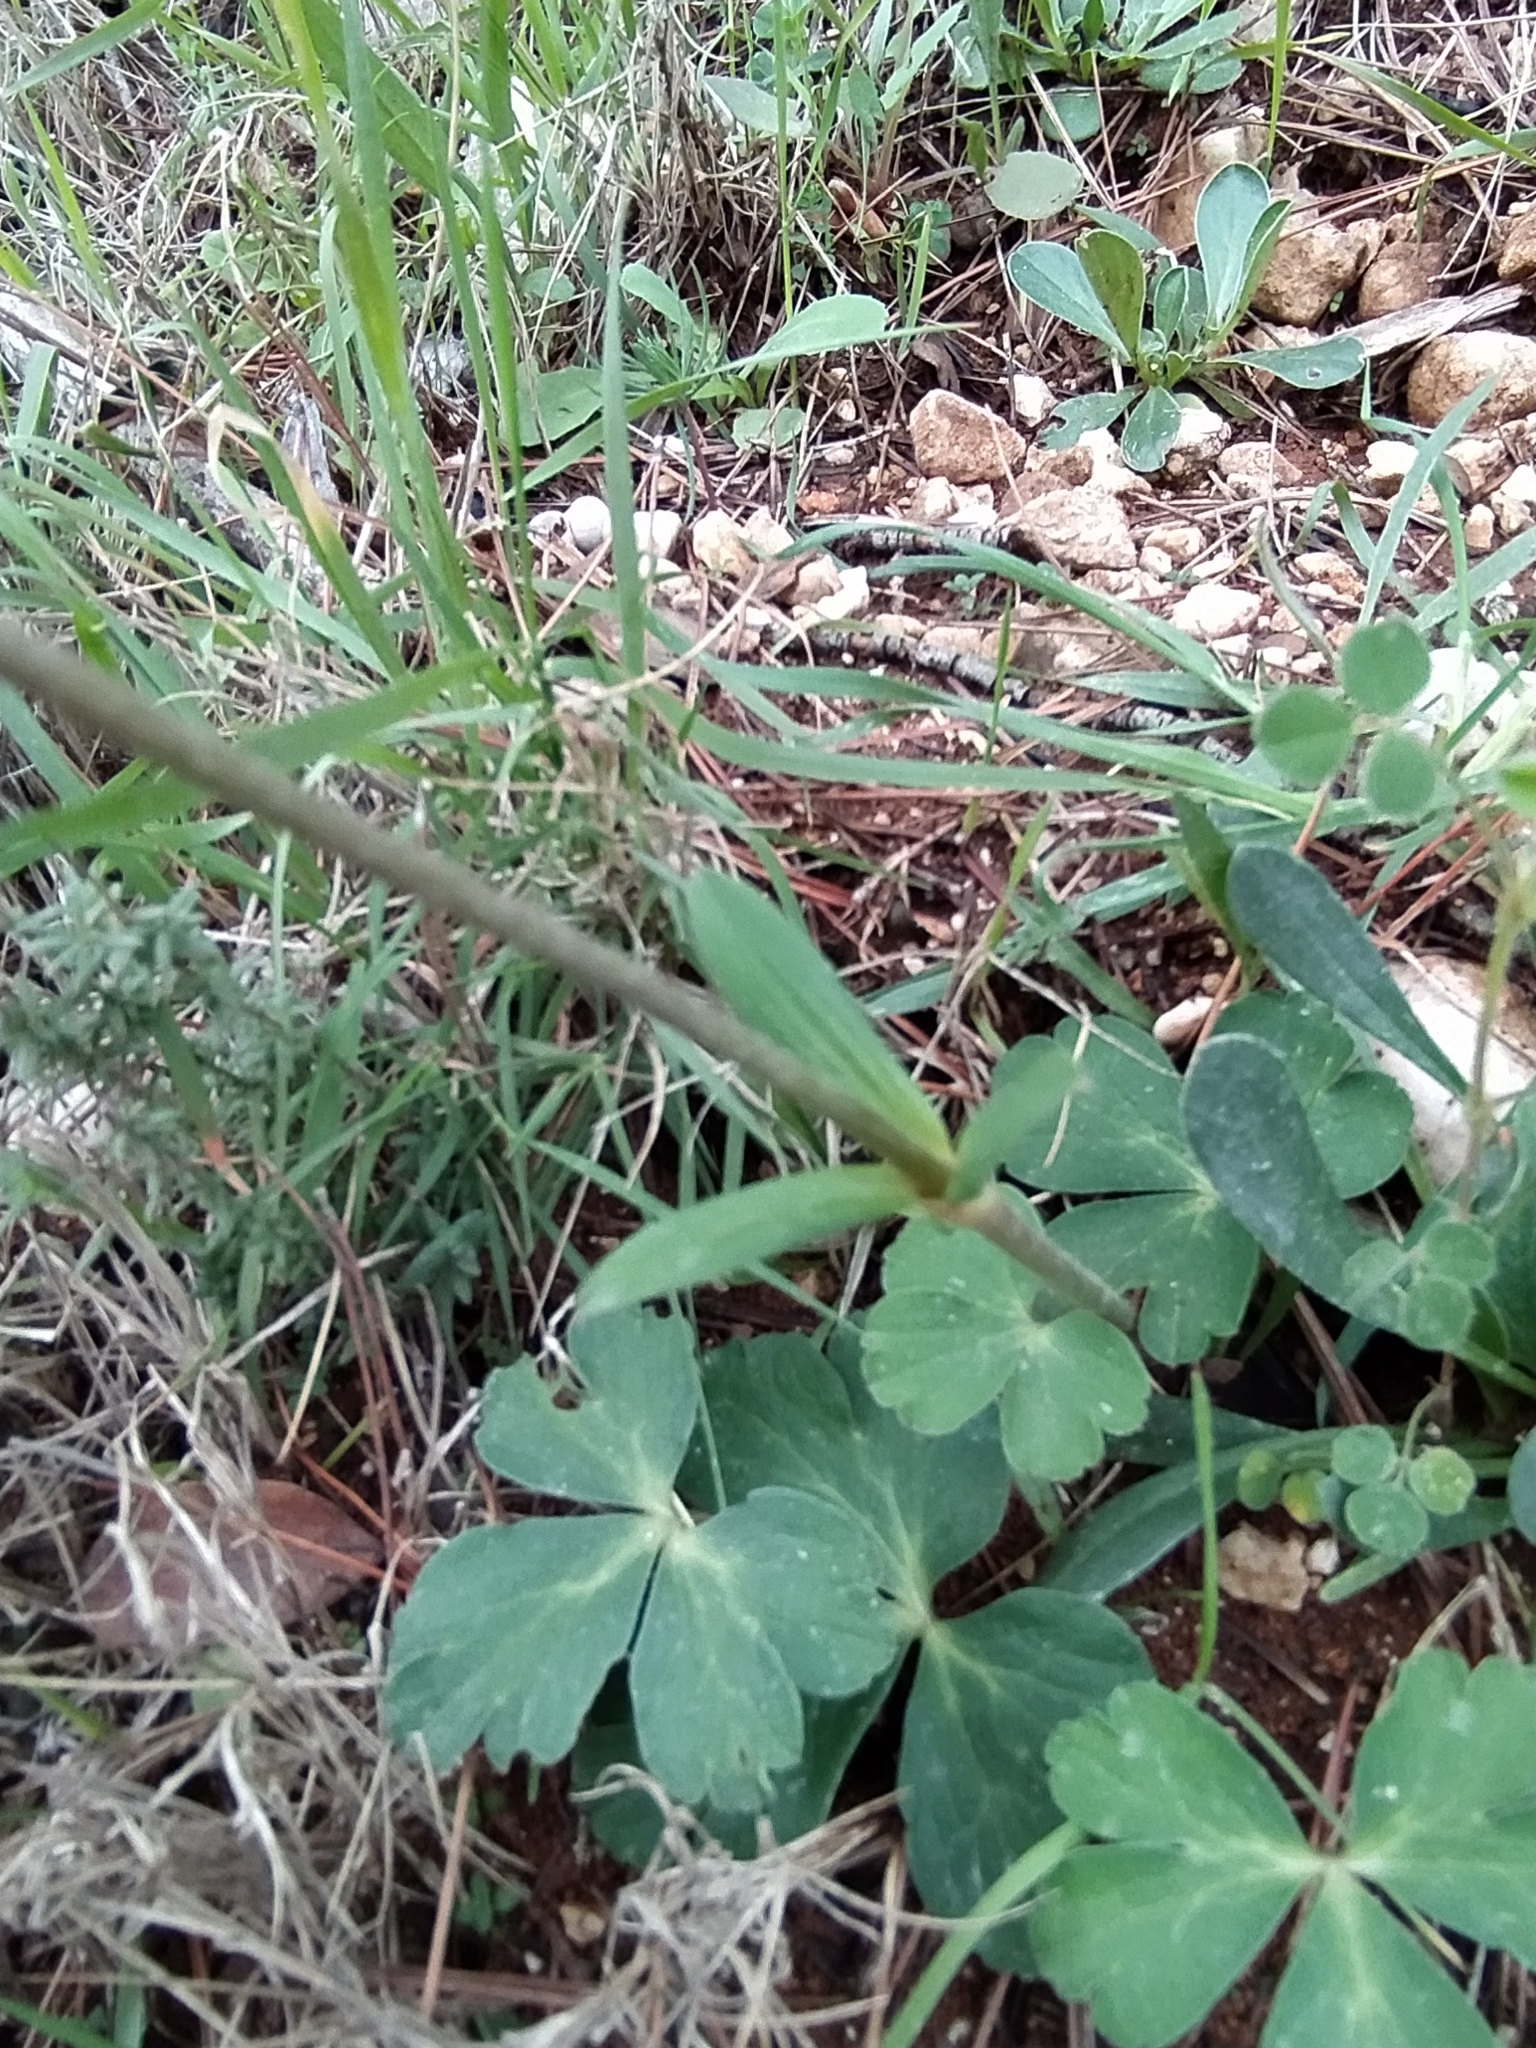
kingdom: Plantae
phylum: Tracheophyta
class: Magnoliopsida
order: Ranunculales
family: Ranunculaceae
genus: Anemone
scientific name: Anemone hortensis
